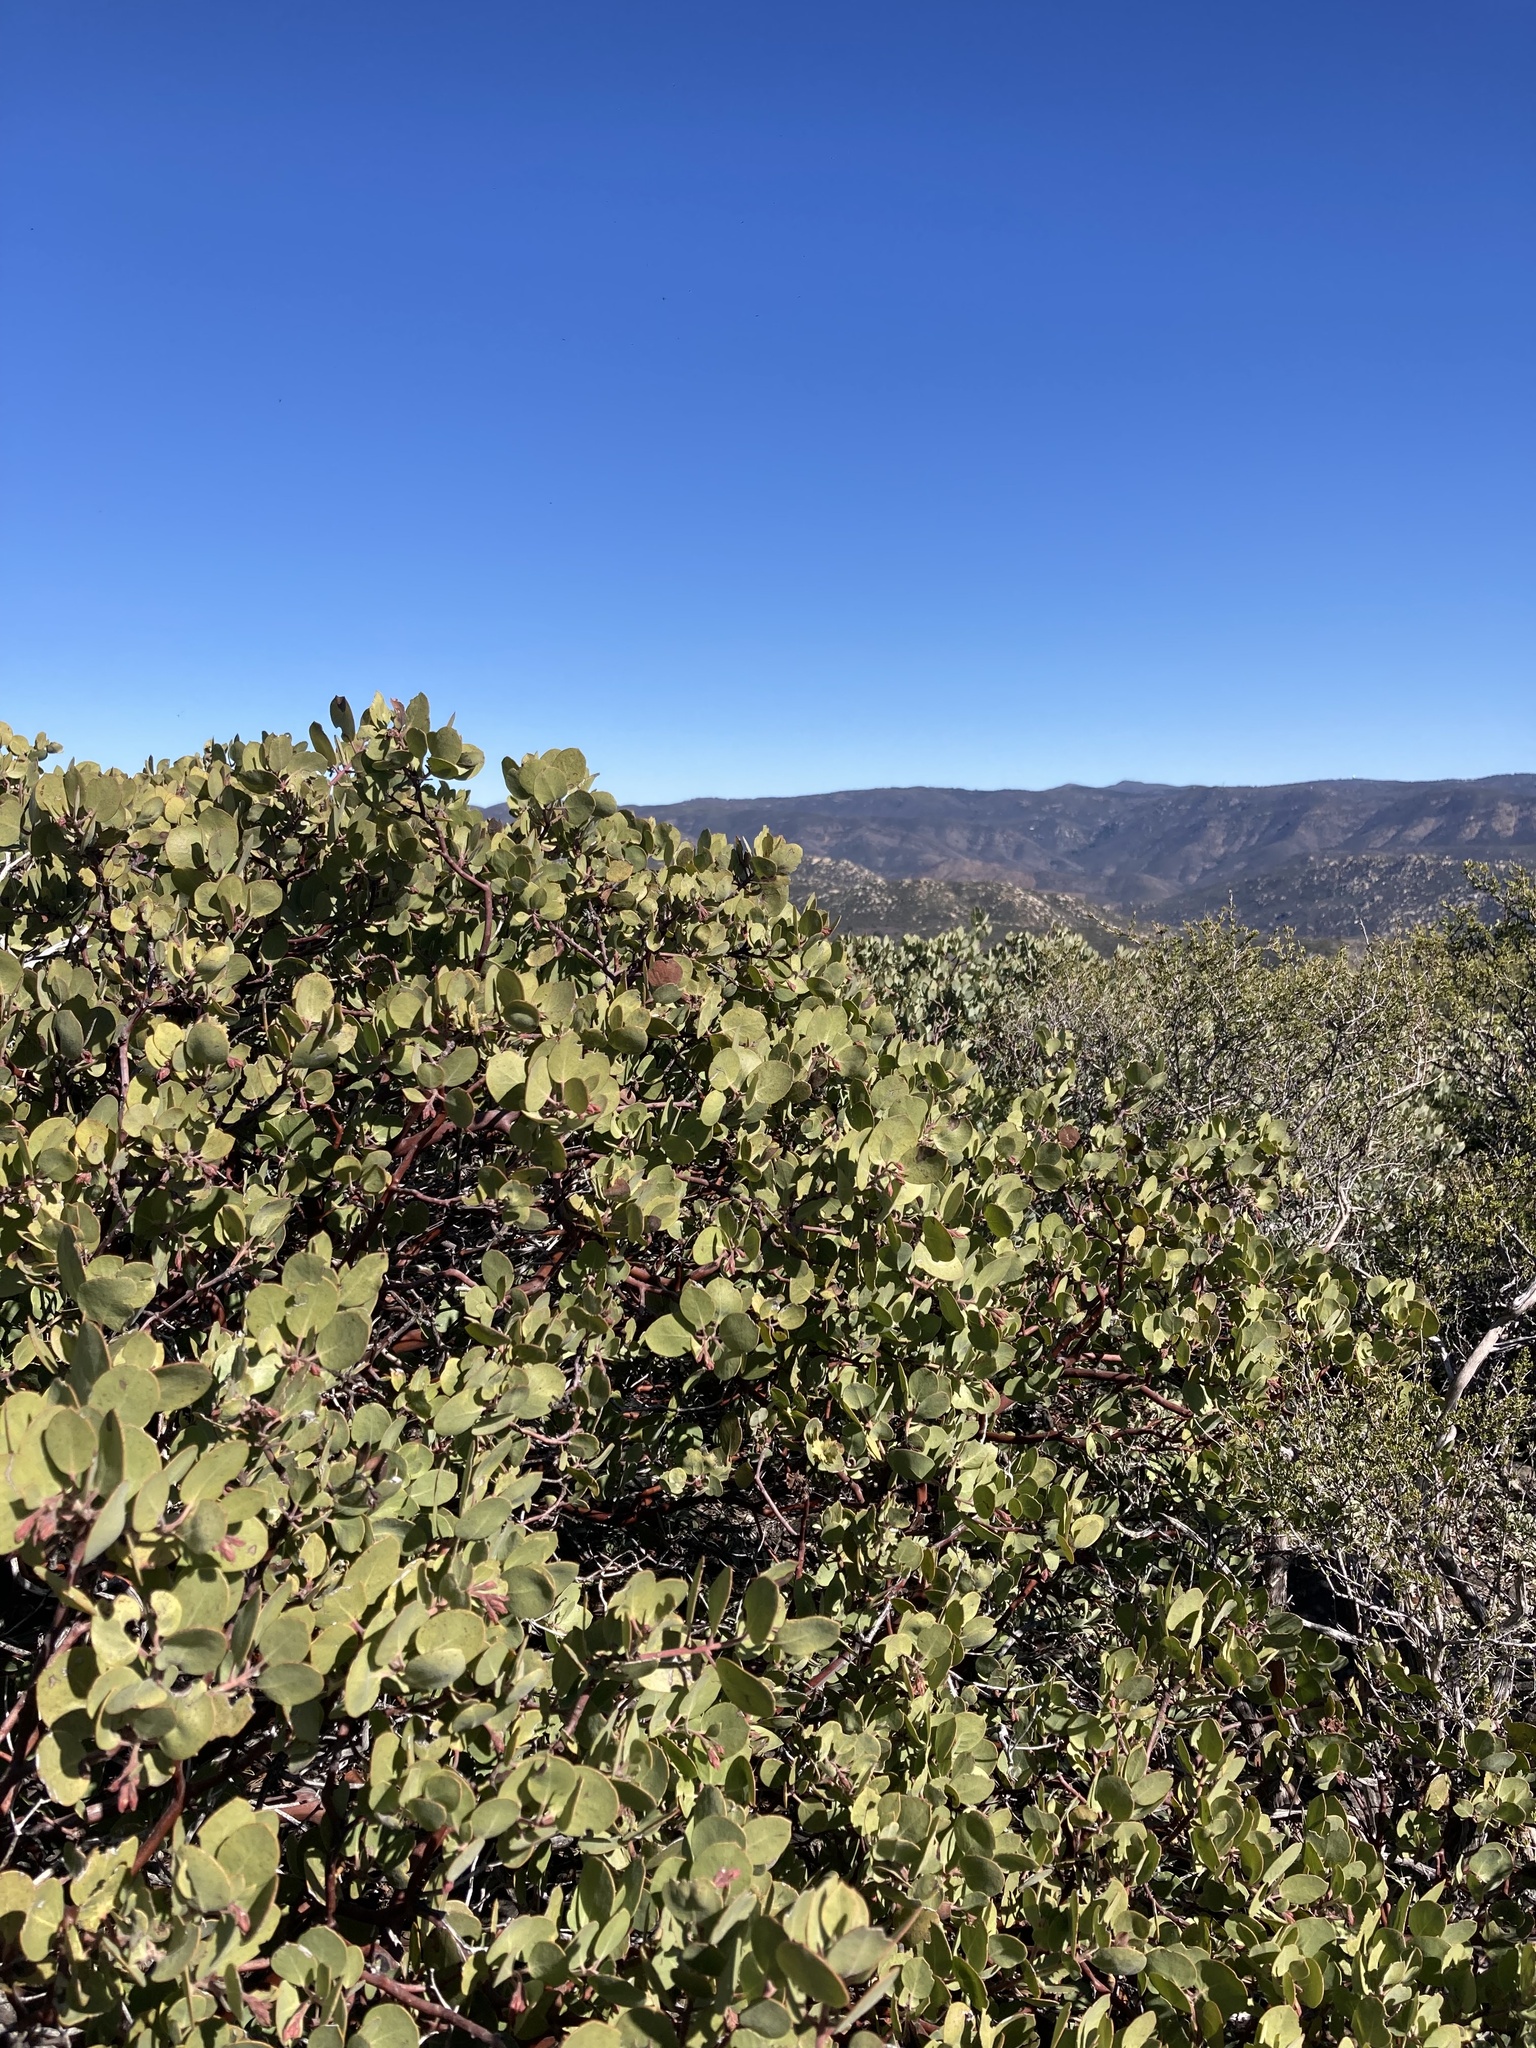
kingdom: Plantae
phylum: Tracheophyta
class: Magnoliopsida
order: Ericales
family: Ericaceae
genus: Arctostaphylos
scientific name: Arctostaphylos glandulosa
